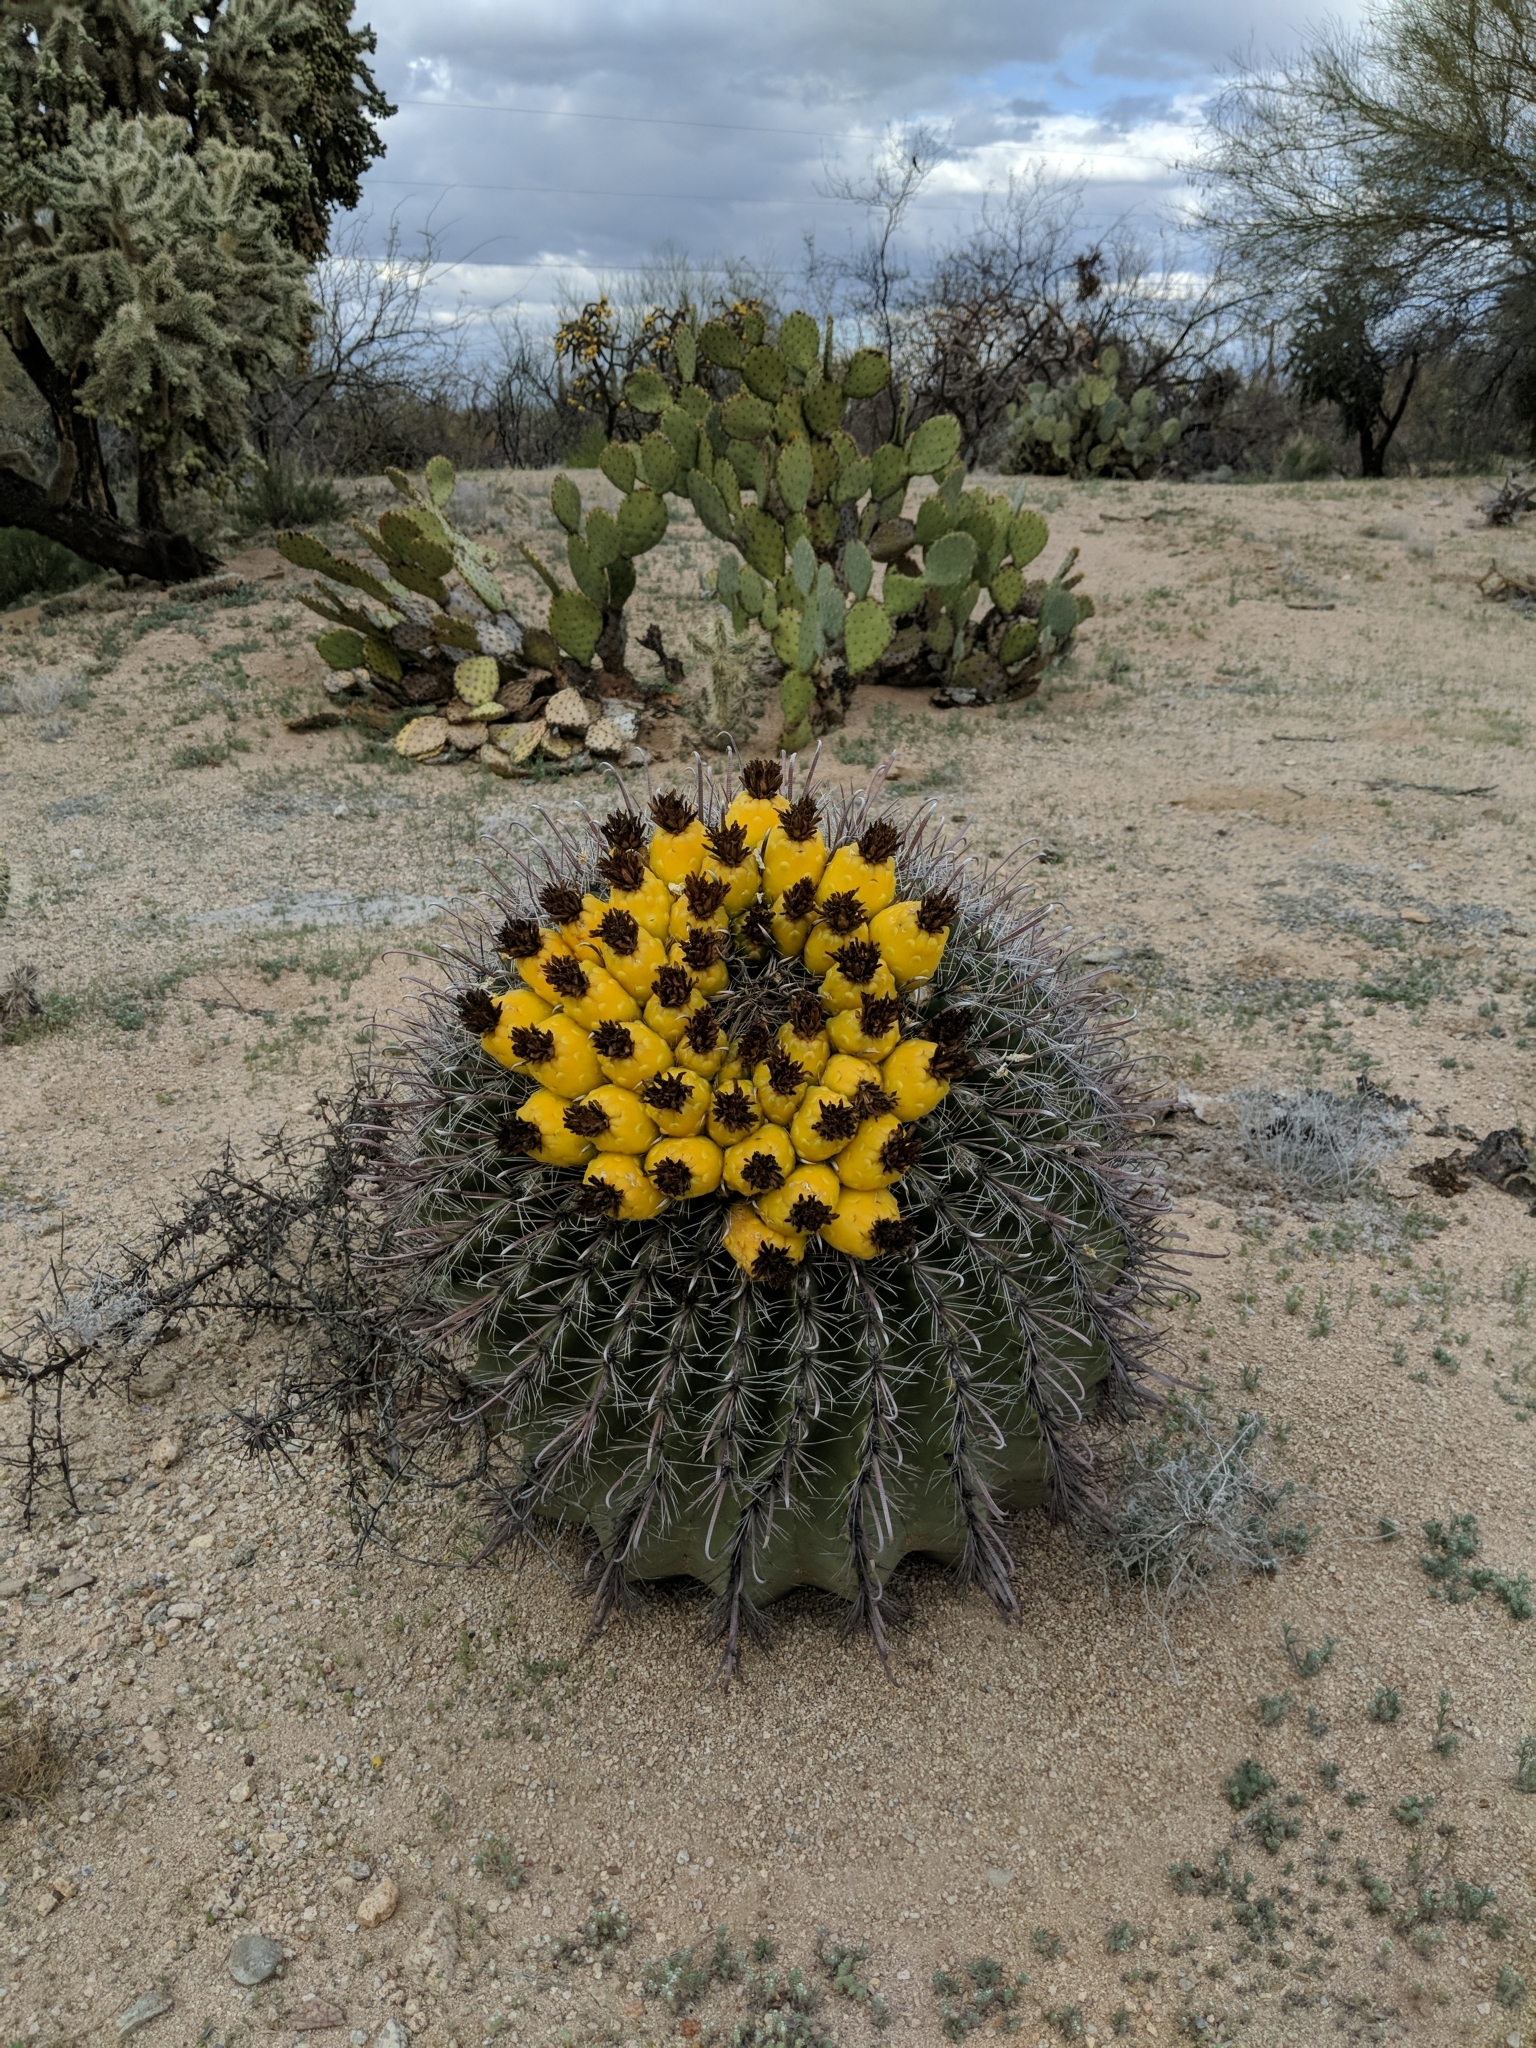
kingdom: Plantae
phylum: Tracheophyta
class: Magnoliopsida
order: Caryophyllales
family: Cactaceae
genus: Ferocactus
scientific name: Ferocactus wislizeni
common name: Candy barrel cactus
